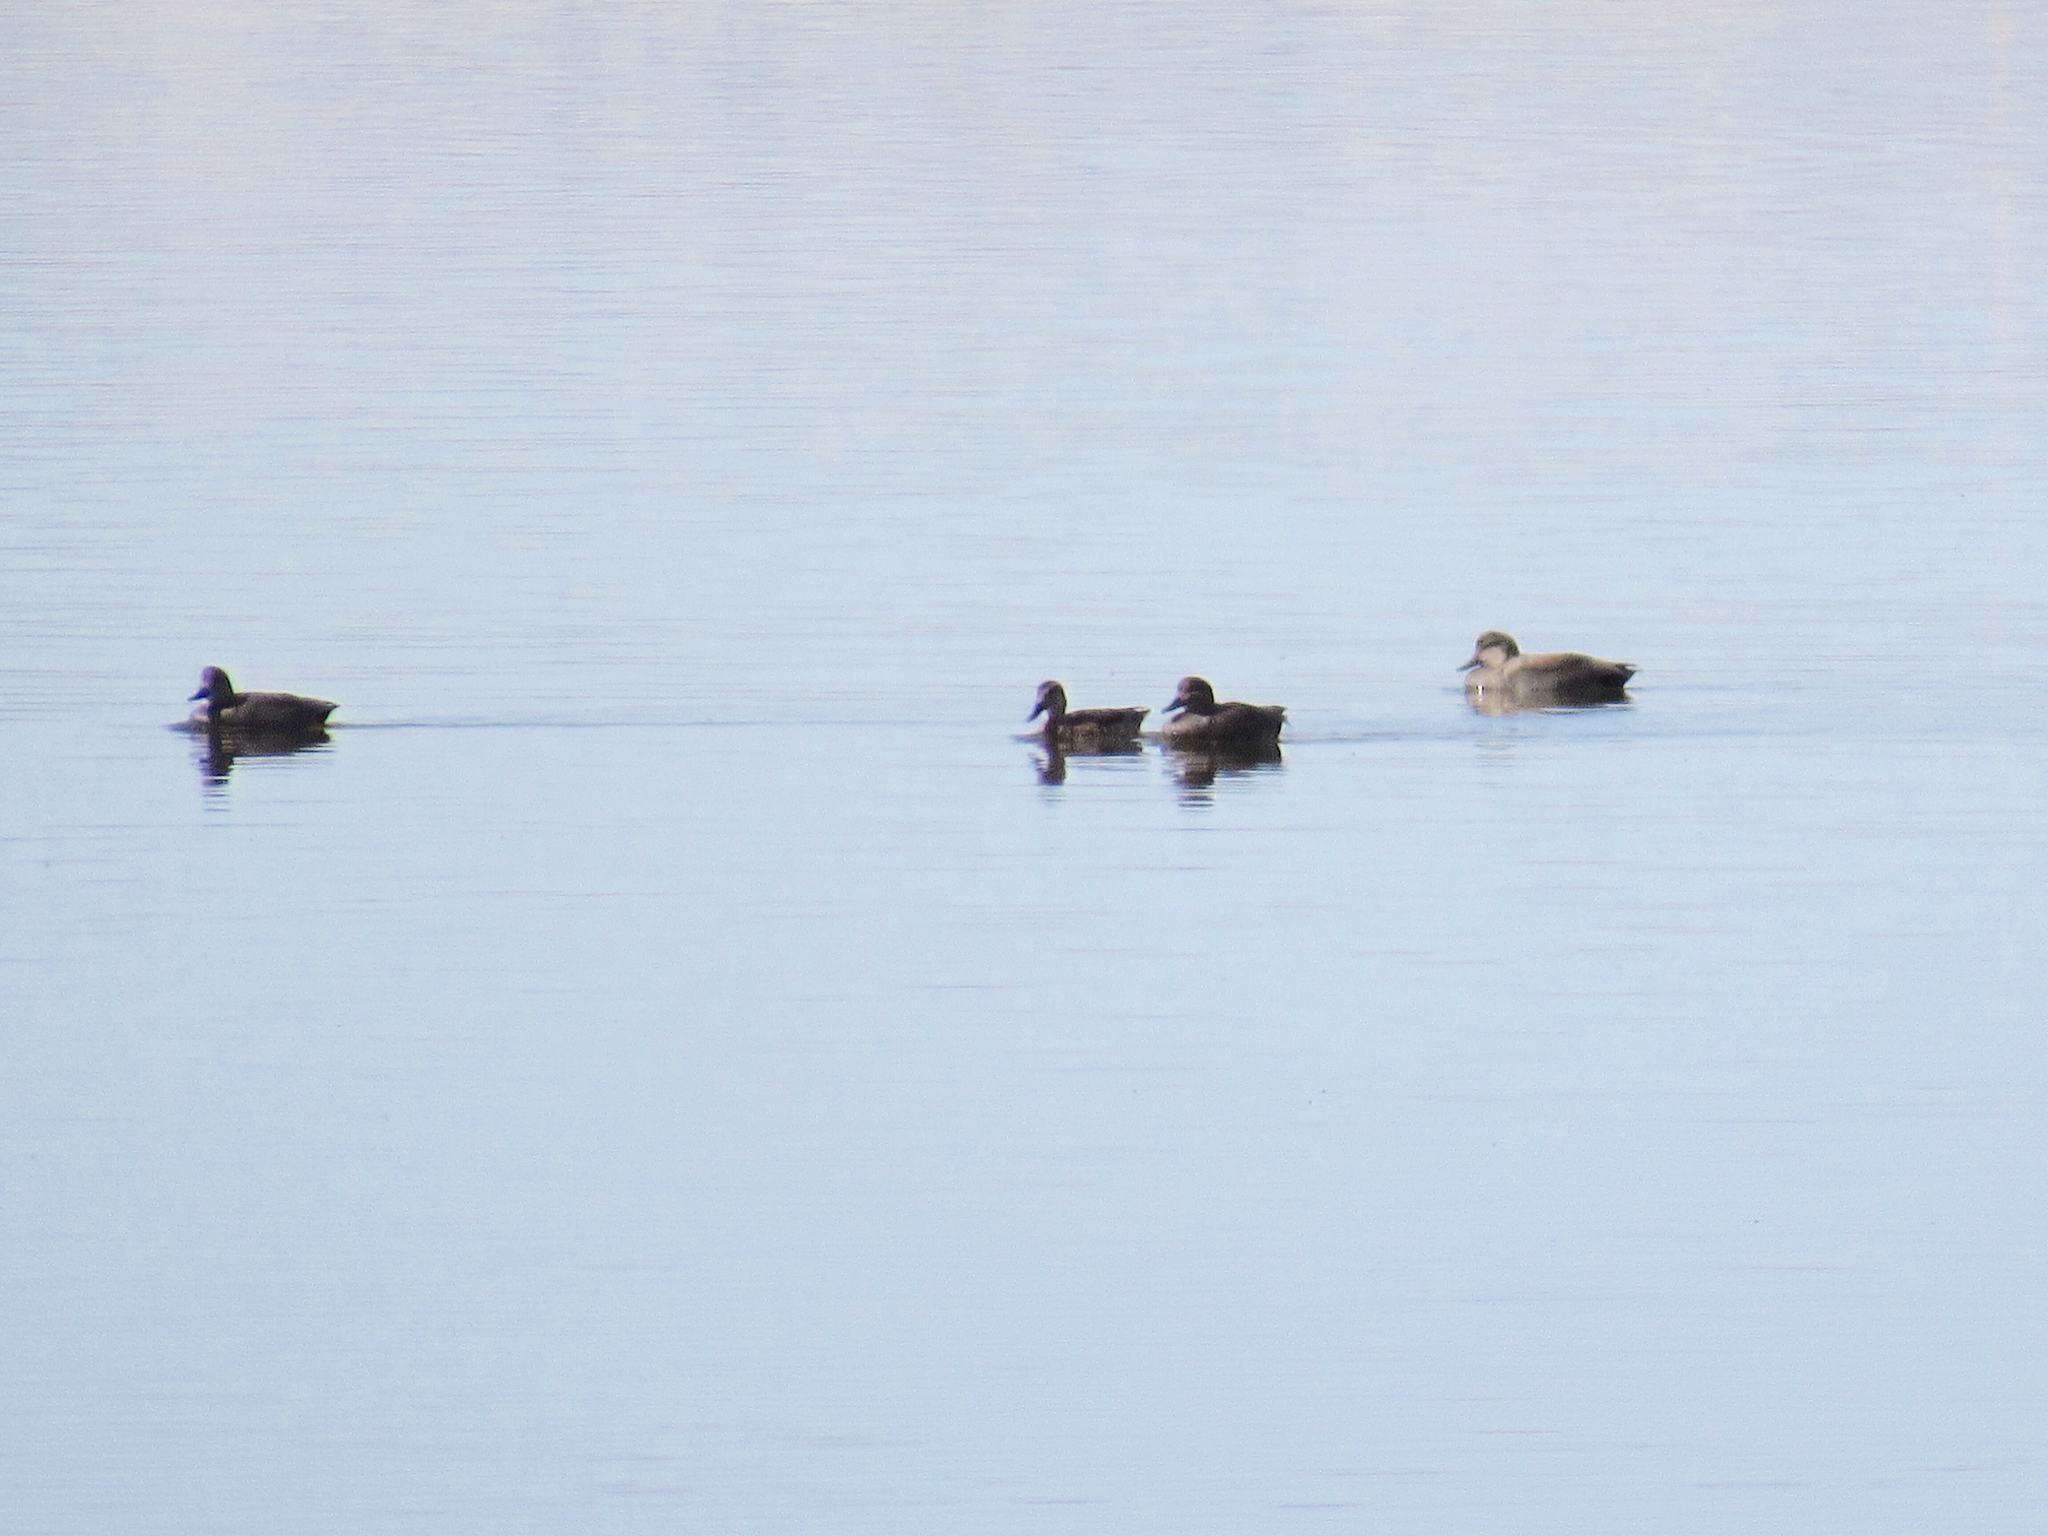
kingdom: Animalia
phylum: Chordata
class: Aves
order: Anseriformes
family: Anatidae
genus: Mareca
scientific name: Mareca strepera
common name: Gadwall
